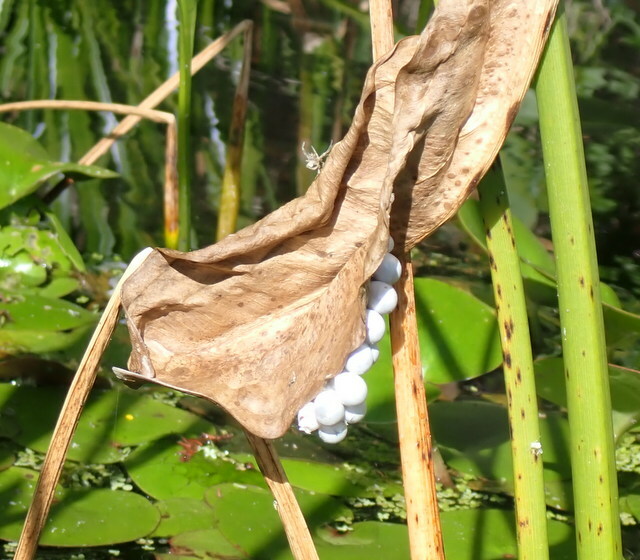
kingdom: Animalia
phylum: Mollusca
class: Gastropoda
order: Architaenioglossa
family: Ampullariidae
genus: Pomacea
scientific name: Pomacea paludosa
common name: Florida applesnail
